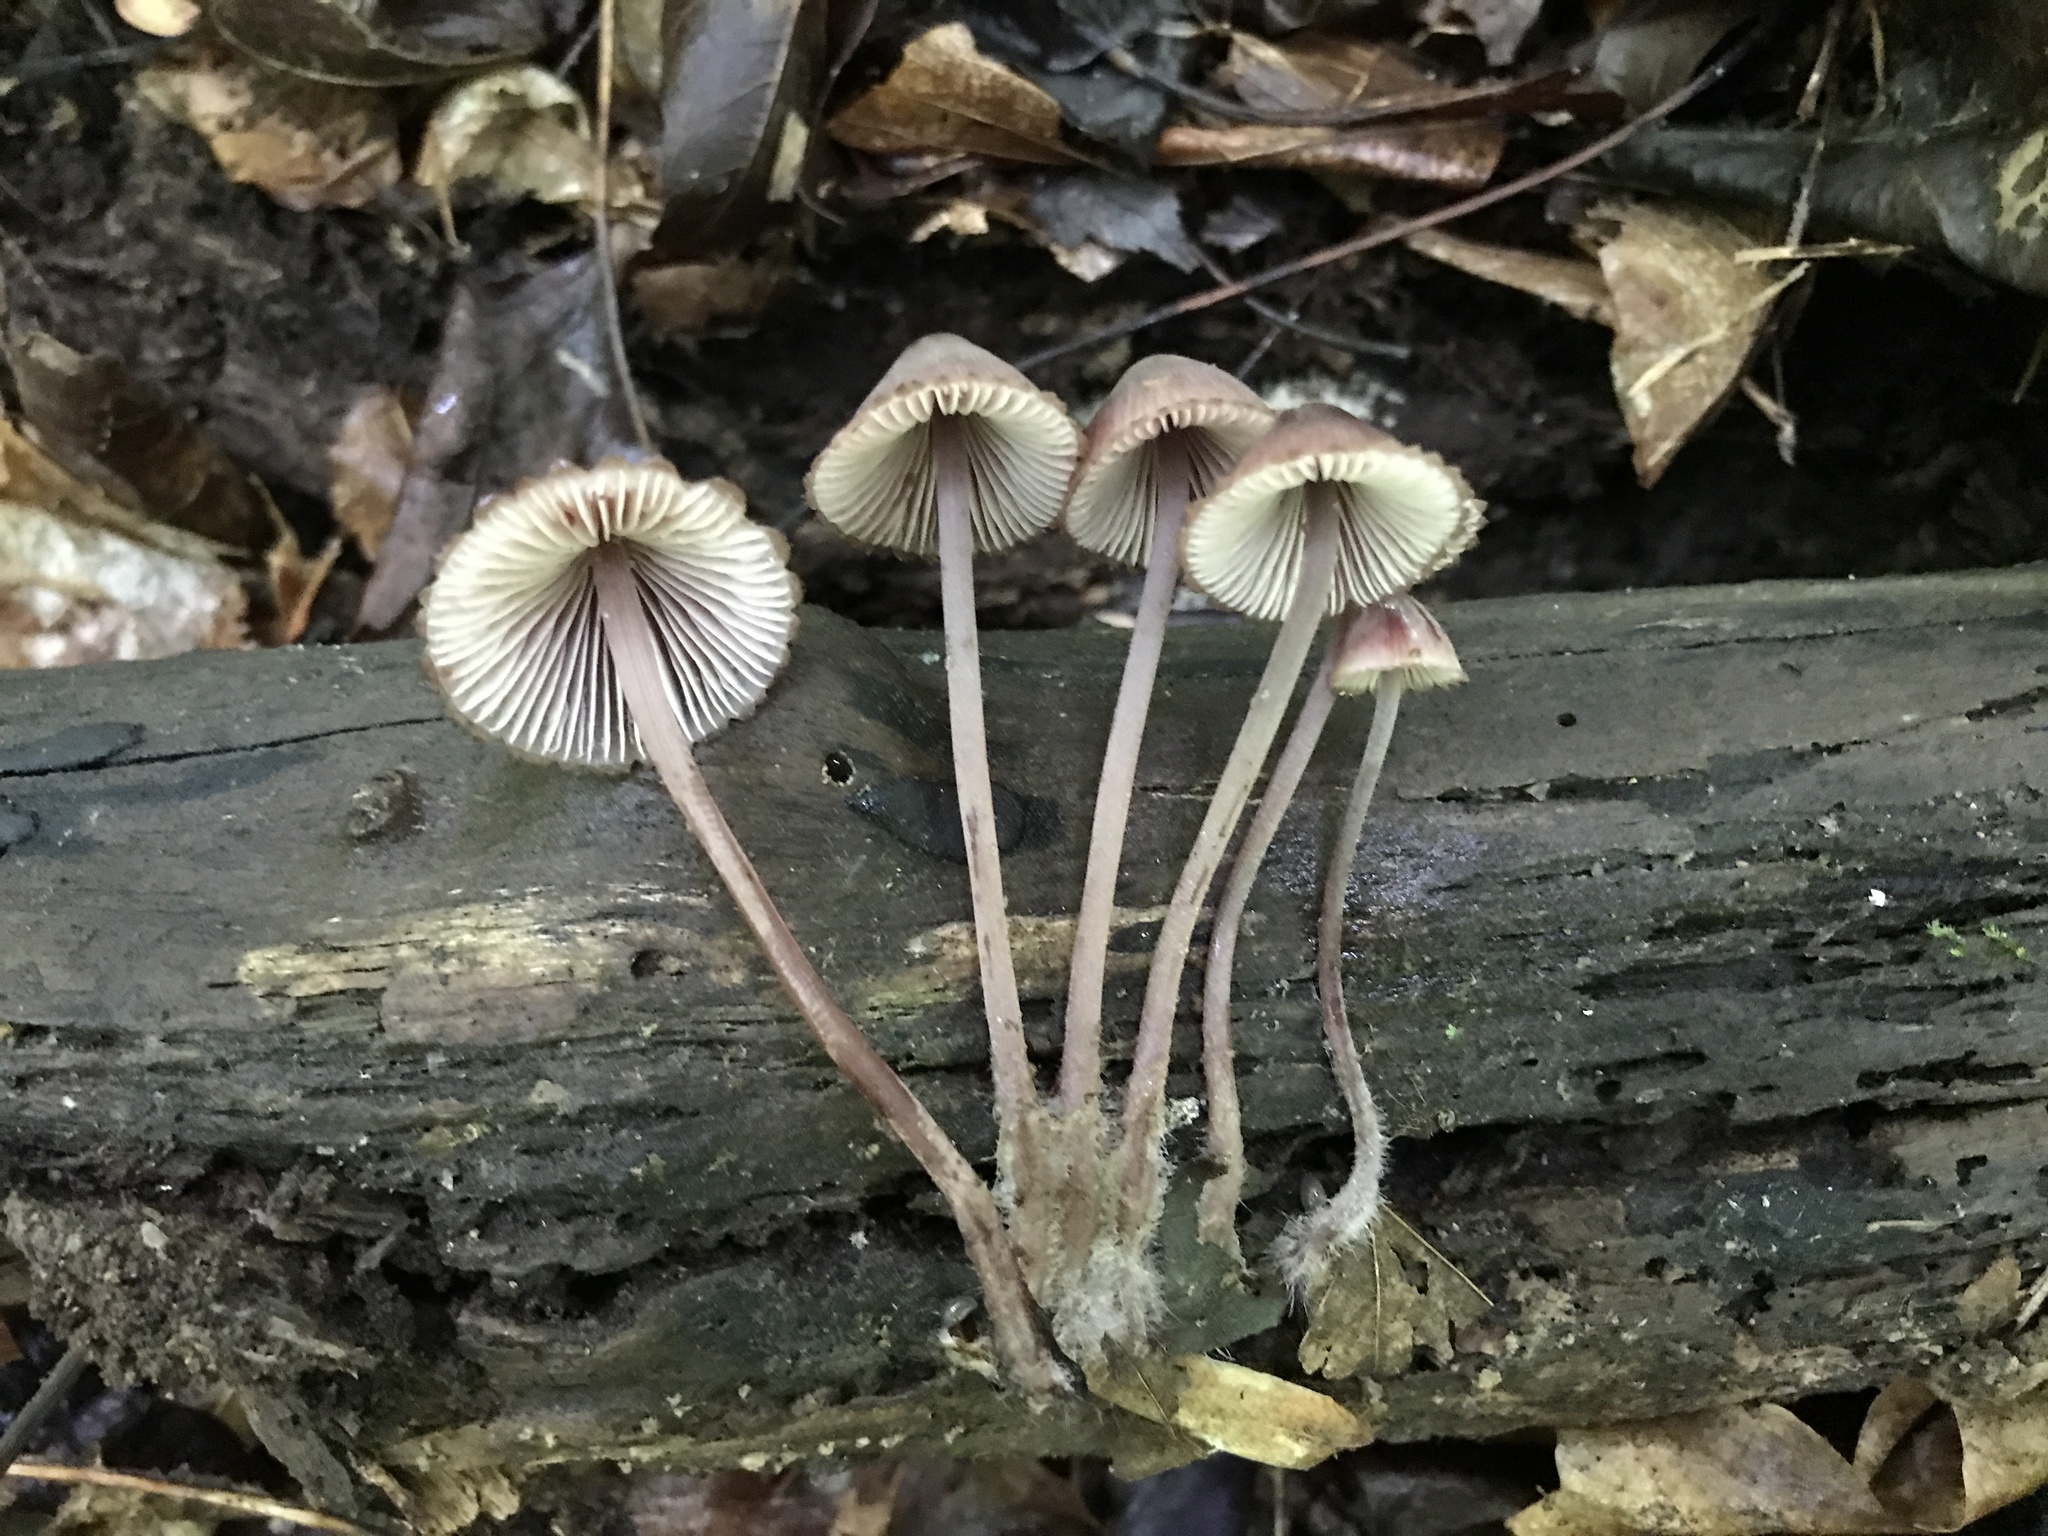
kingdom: Fungi
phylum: Basidiomycota
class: Agaricomycetes
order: Agaricales
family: Mycenaceae
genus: Mycena
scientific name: Mycena haematopus
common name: Burgundydrop bonnet
